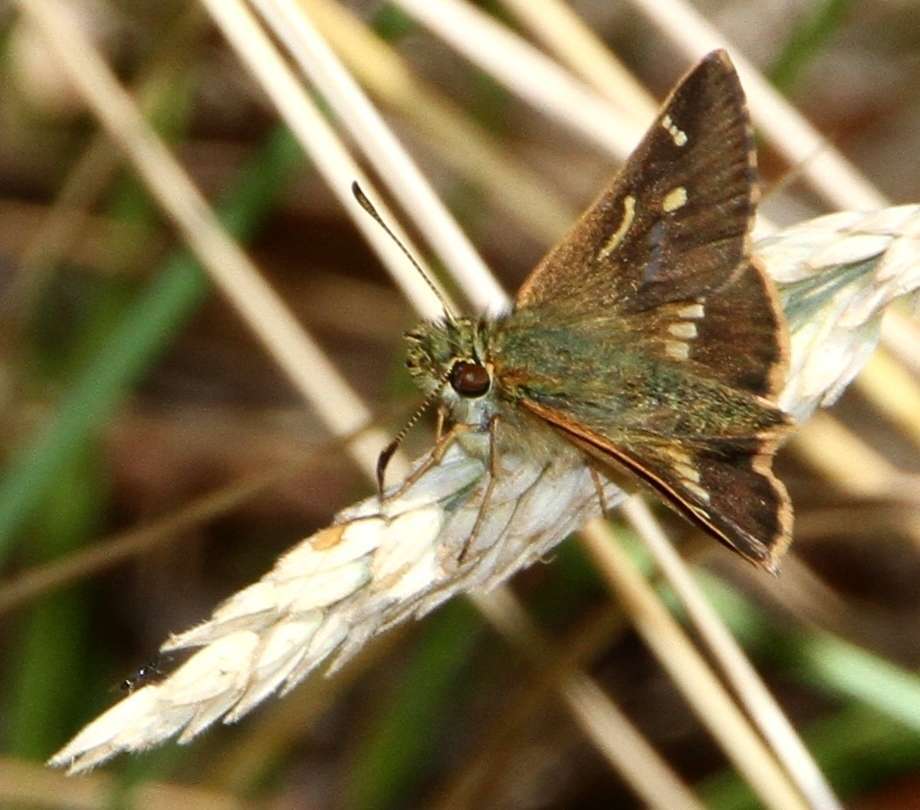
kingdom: Animalia
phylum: Arthropoda
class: Insecta
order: Lepidoptera
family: Hesperiidae
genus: Dispar
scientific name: Dispar compacta
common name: Barred skipper
